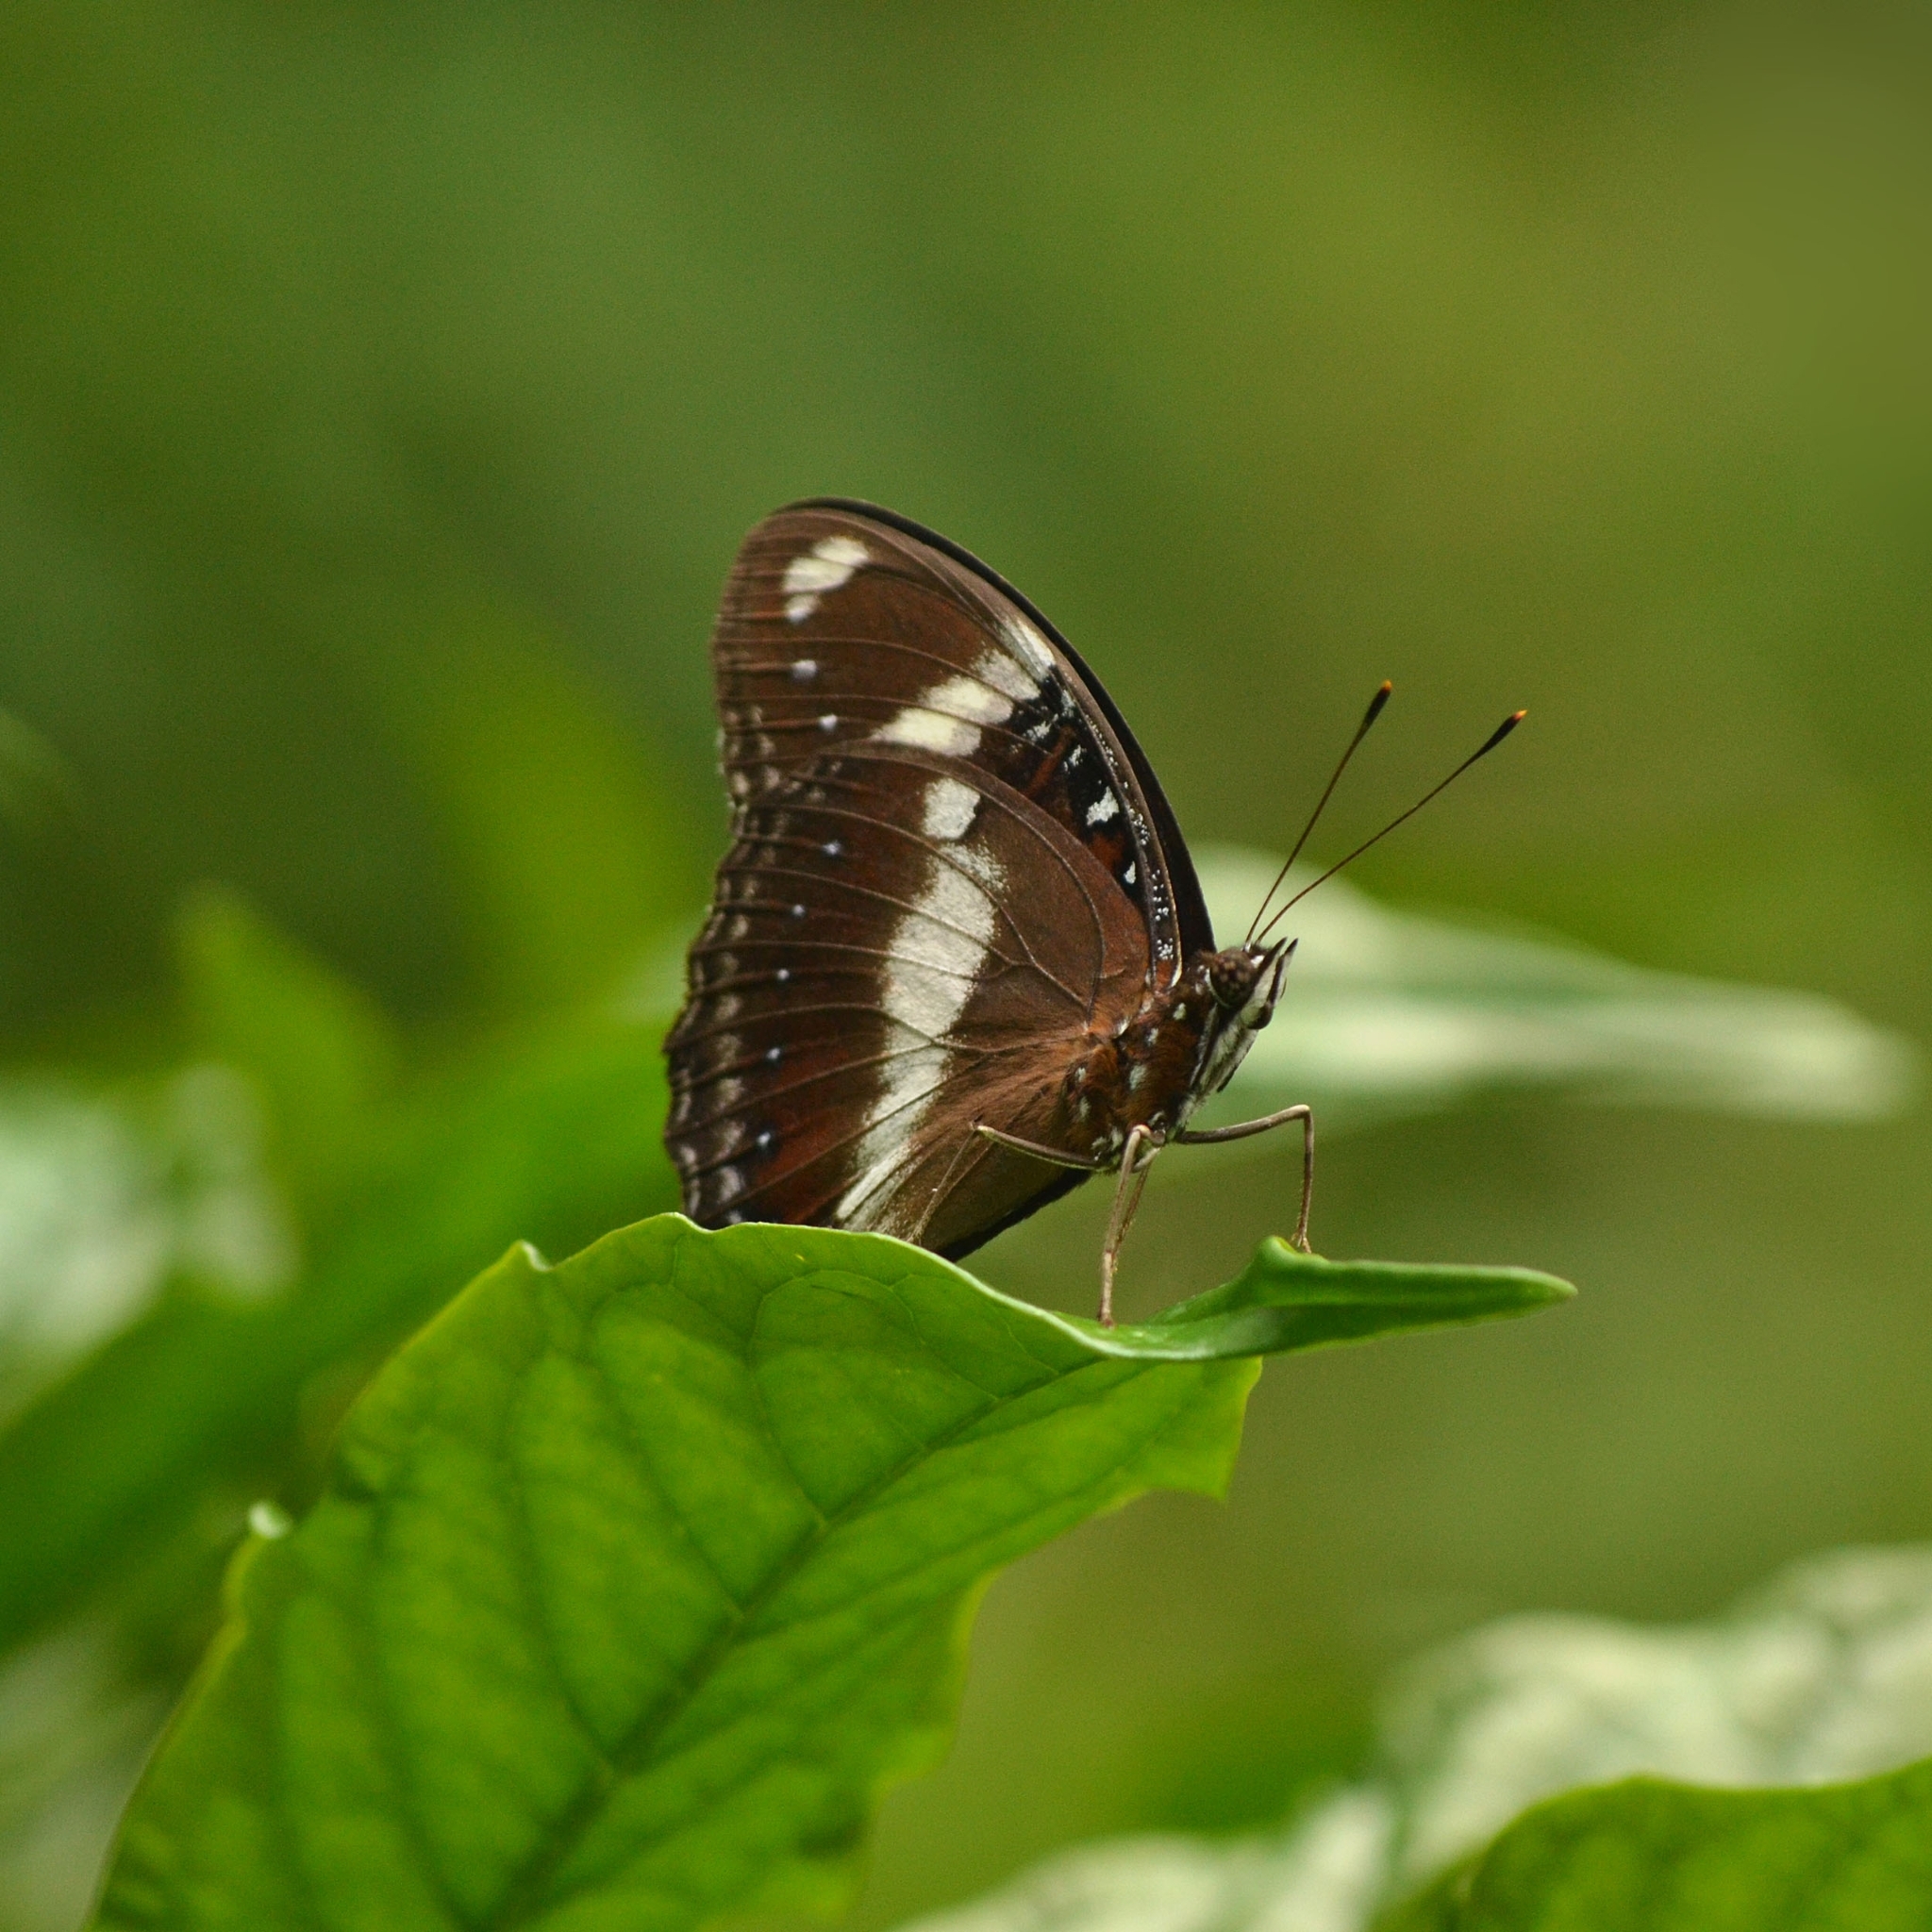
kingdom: Animalia
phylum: Arthropoda
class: Insecta
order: Lepidoptera
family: Nymphalidae
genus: Hypolimnas
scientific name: Hypolimnas bolina
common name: Great eggfly
